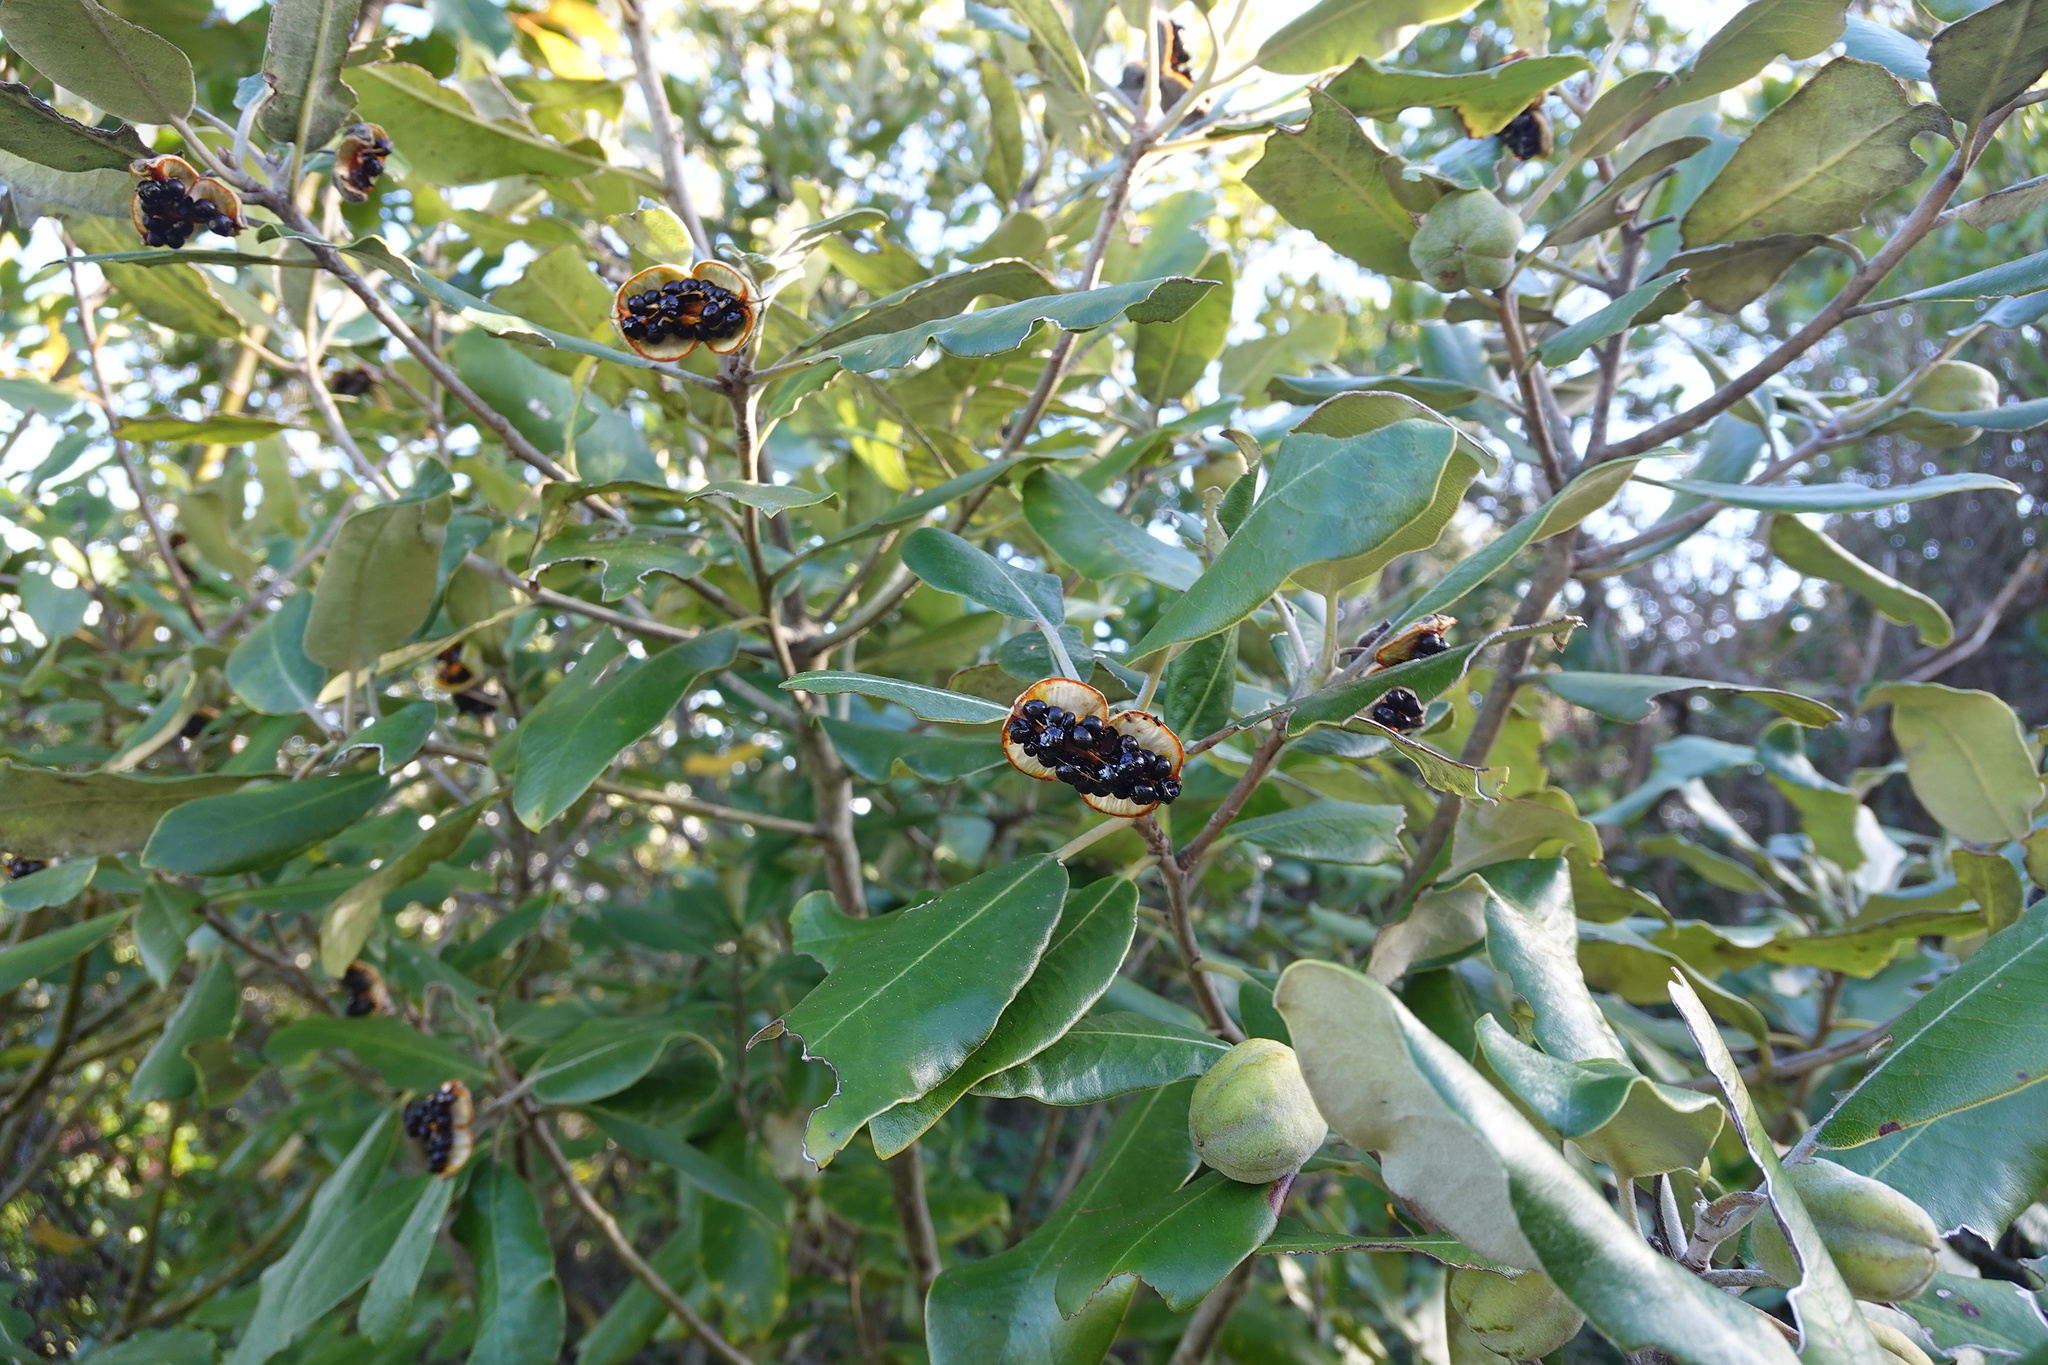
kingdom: Plantae
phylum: Tracheophyta
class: Magnoliopsida
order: Apiales
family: Pittosporaceae
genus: Pittosporum
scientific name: Pittosporum ralphii
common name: Ralph's desertwillow
